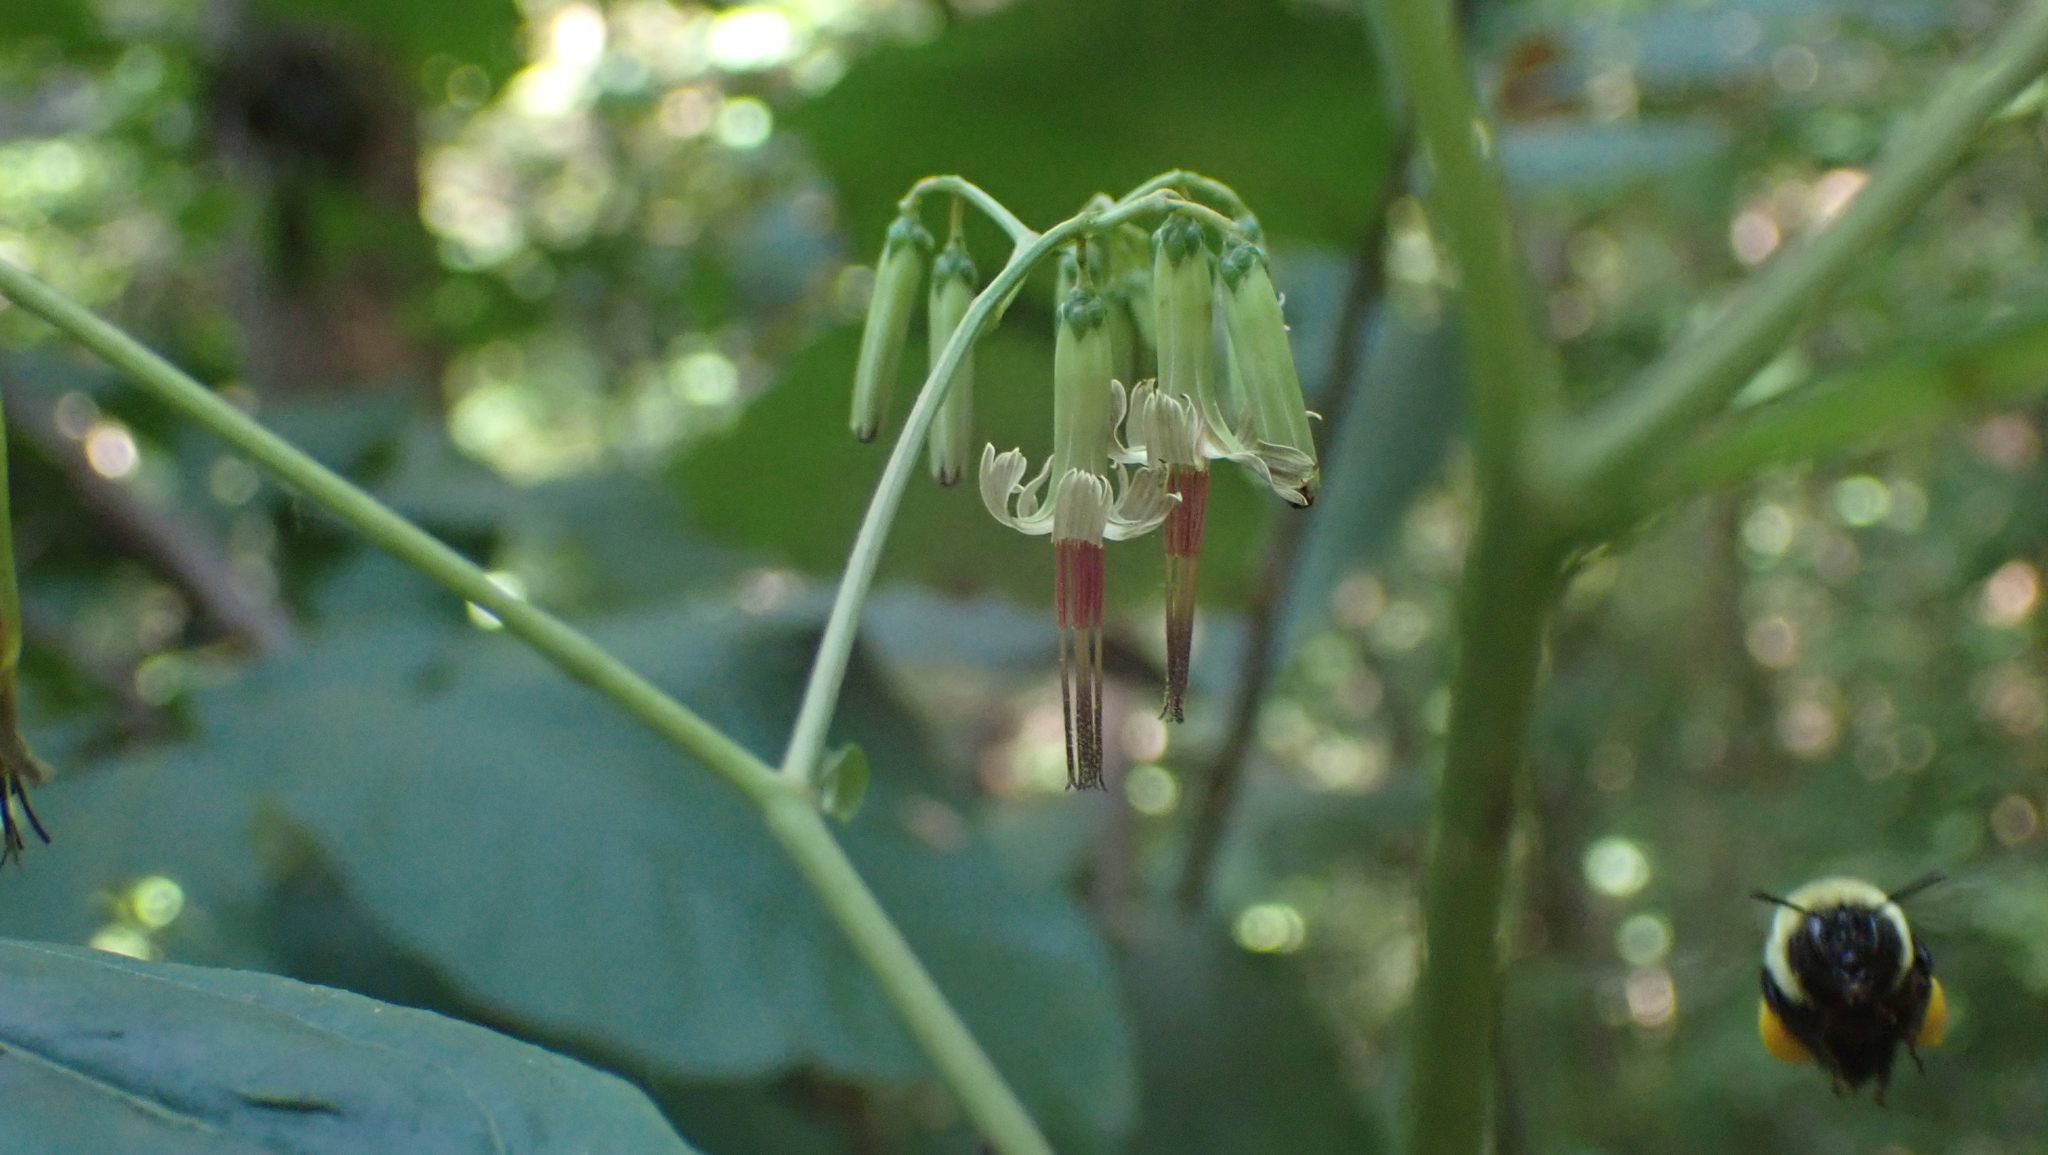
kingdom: Plantae
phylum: Tracheophyta
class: Magnoliopsida
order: Asterales
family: Asteraceae
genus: Nabalus
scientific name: Nabalus altissima
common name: Tall rattlesnakeroot
